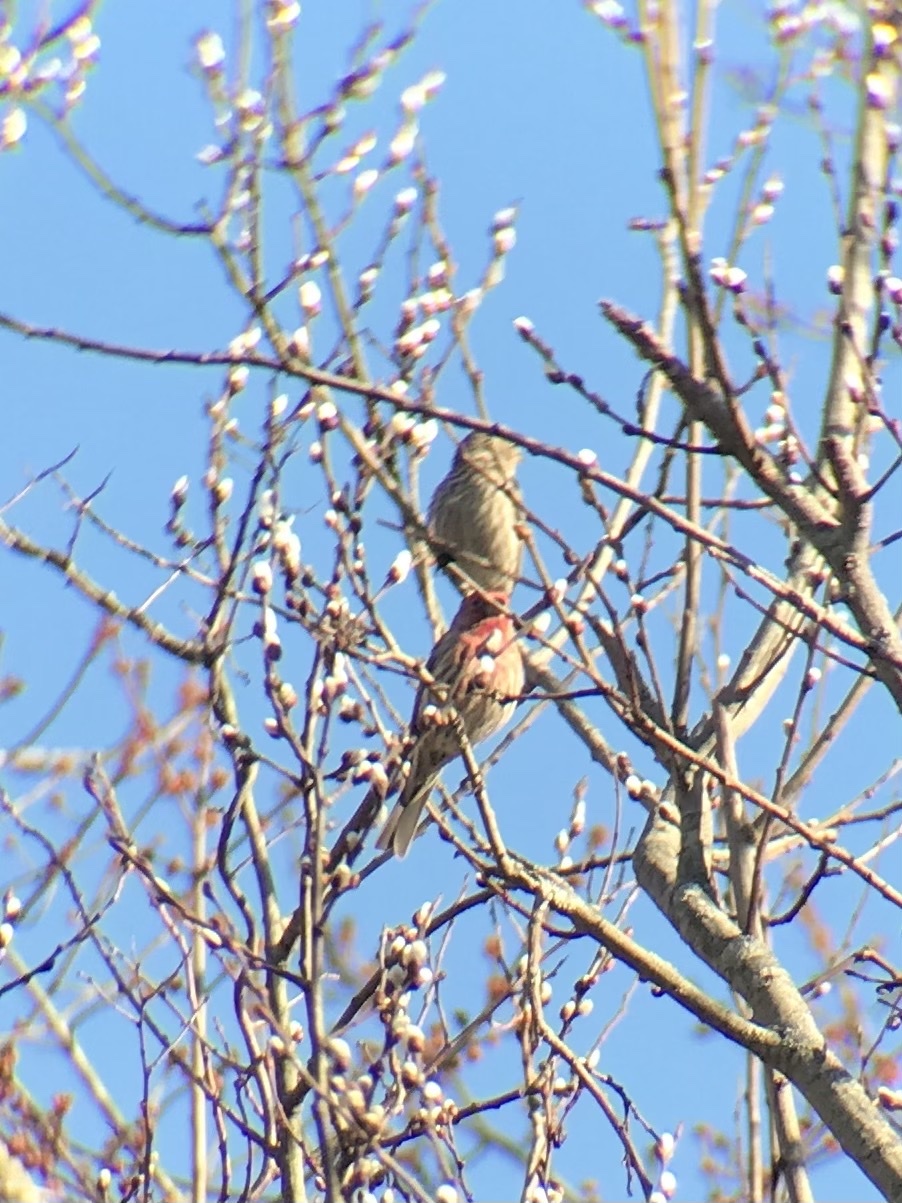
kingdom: Animalia
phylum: Chordata
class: Aves
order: Passeriformes
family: Fringillidae
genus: Haemorhous
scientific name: Haemorhous mexicanus
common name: House finch
